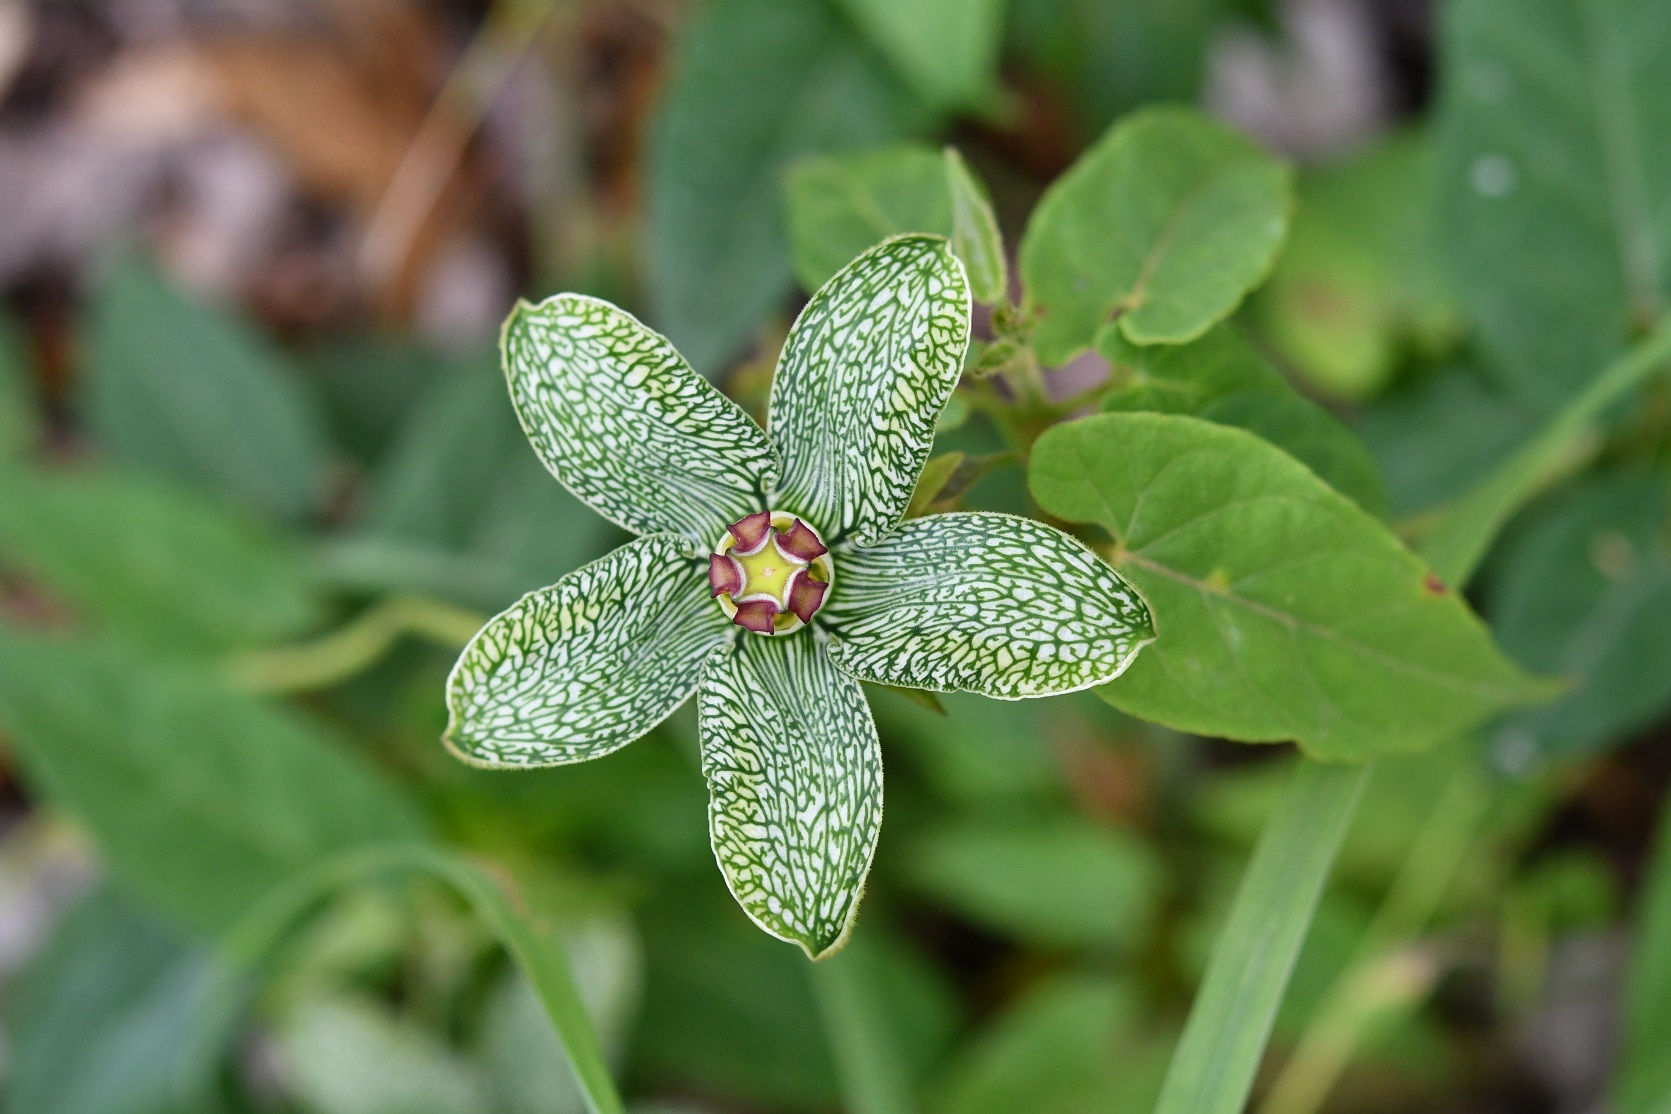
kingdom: Plantae
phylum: Tracheophyta
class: Magnoliopsida
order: Gentianales
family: Apocynaceae
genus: Gonolobus
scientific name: Gonolobus incerianus
